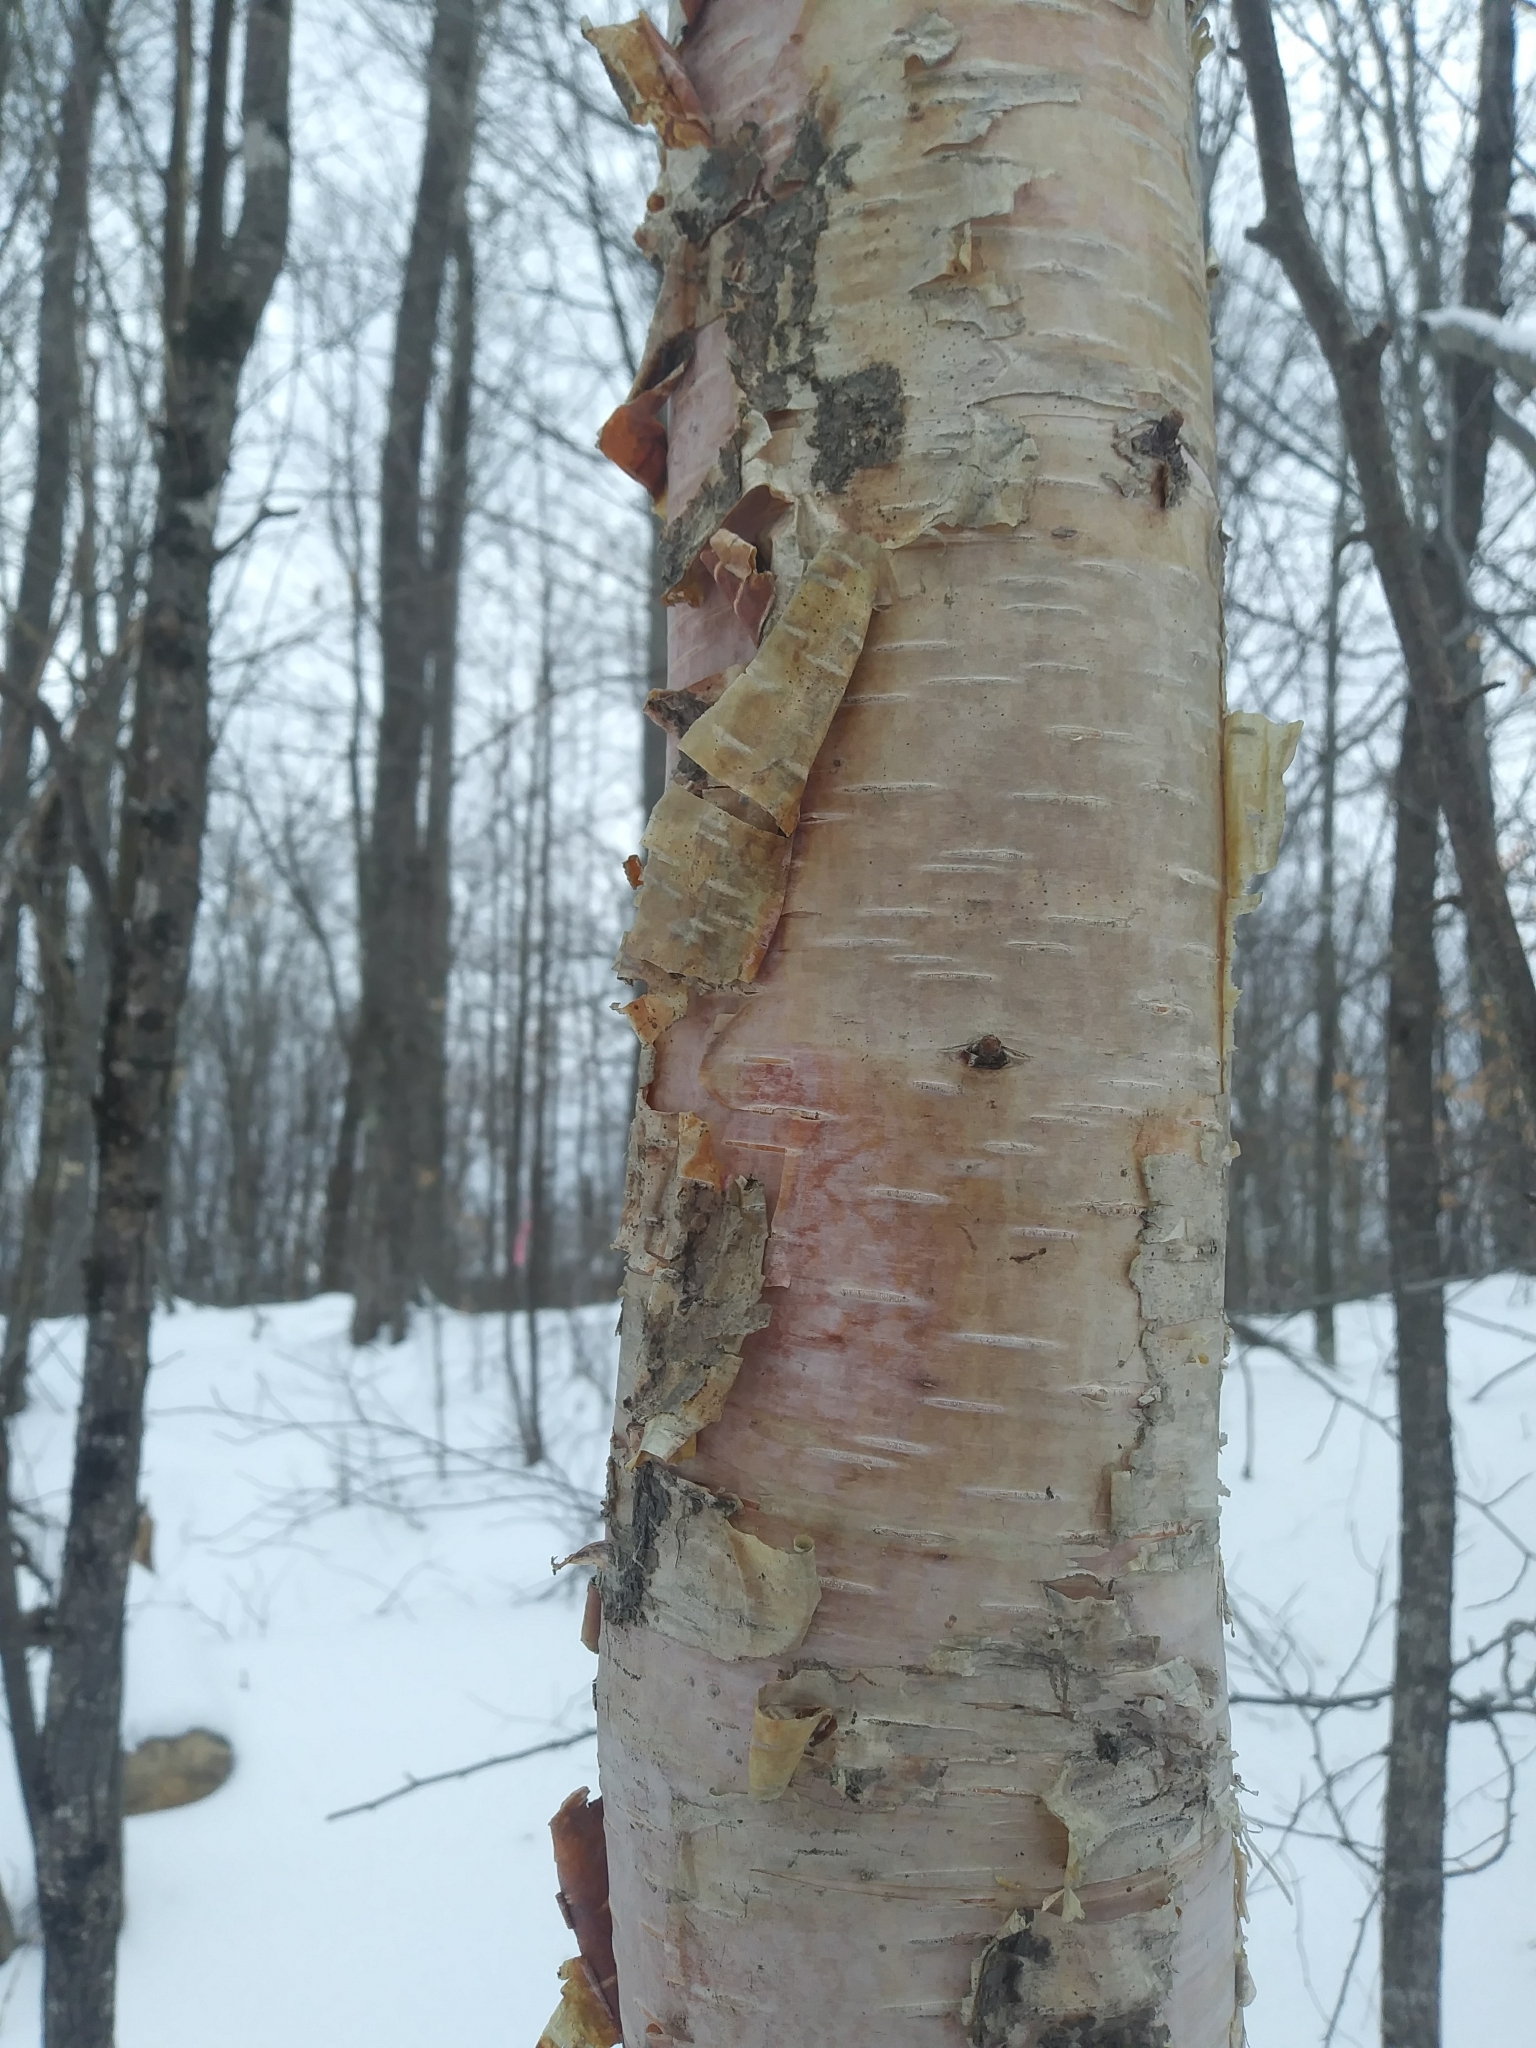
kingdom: Plantae
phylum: Tracheophyta
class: Magnoliopsida
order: Fagales
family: Betulaceae
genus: Betula
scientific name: Betula papyrifera
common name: Paper birch
